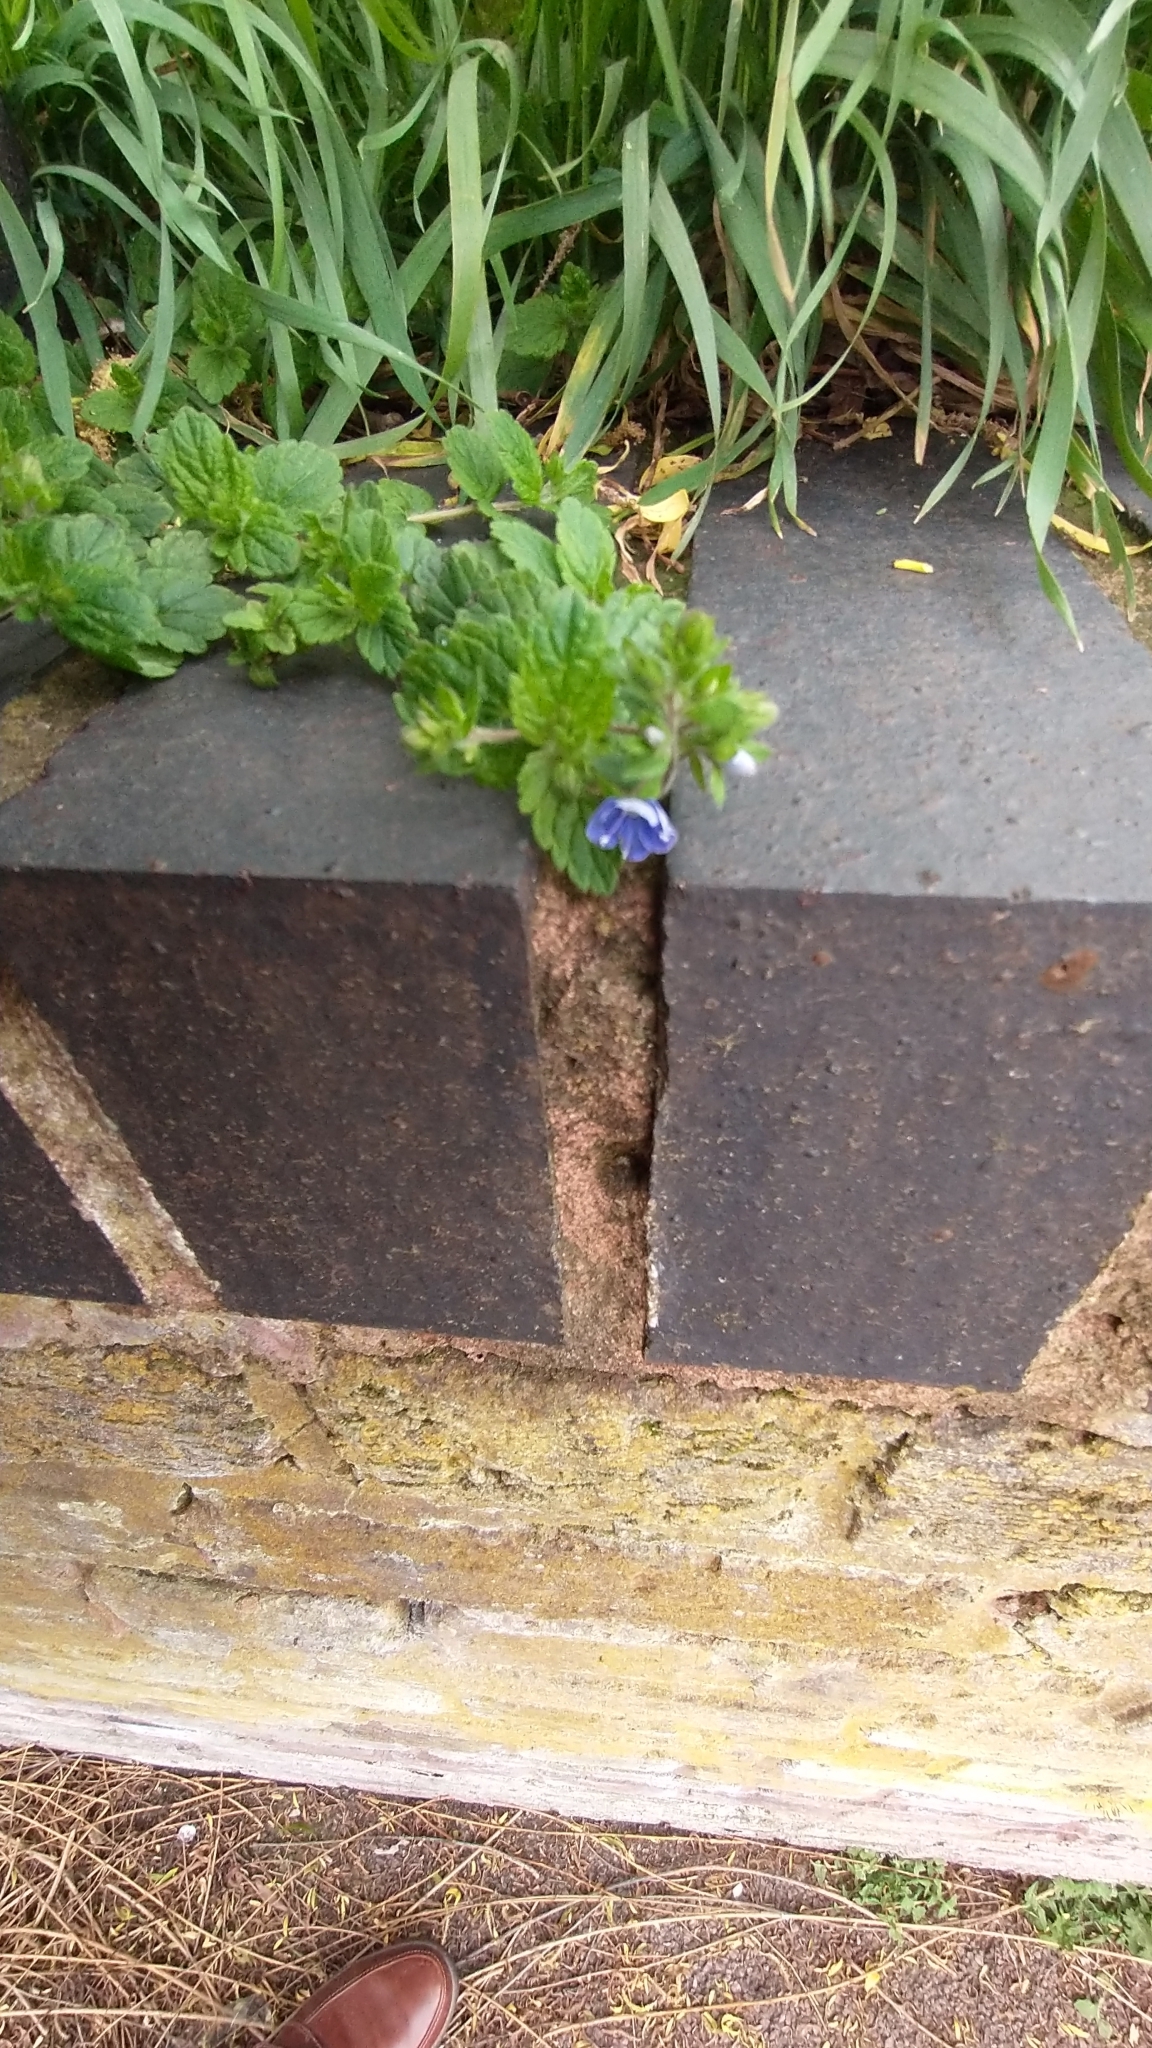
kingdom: Plantae
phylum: Tracheophyta
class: Magnoliopsida
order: Lamiales
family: Plantaginaceae
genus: Veronica
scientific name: Veronica chamaedrys
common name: Germander speedwell
